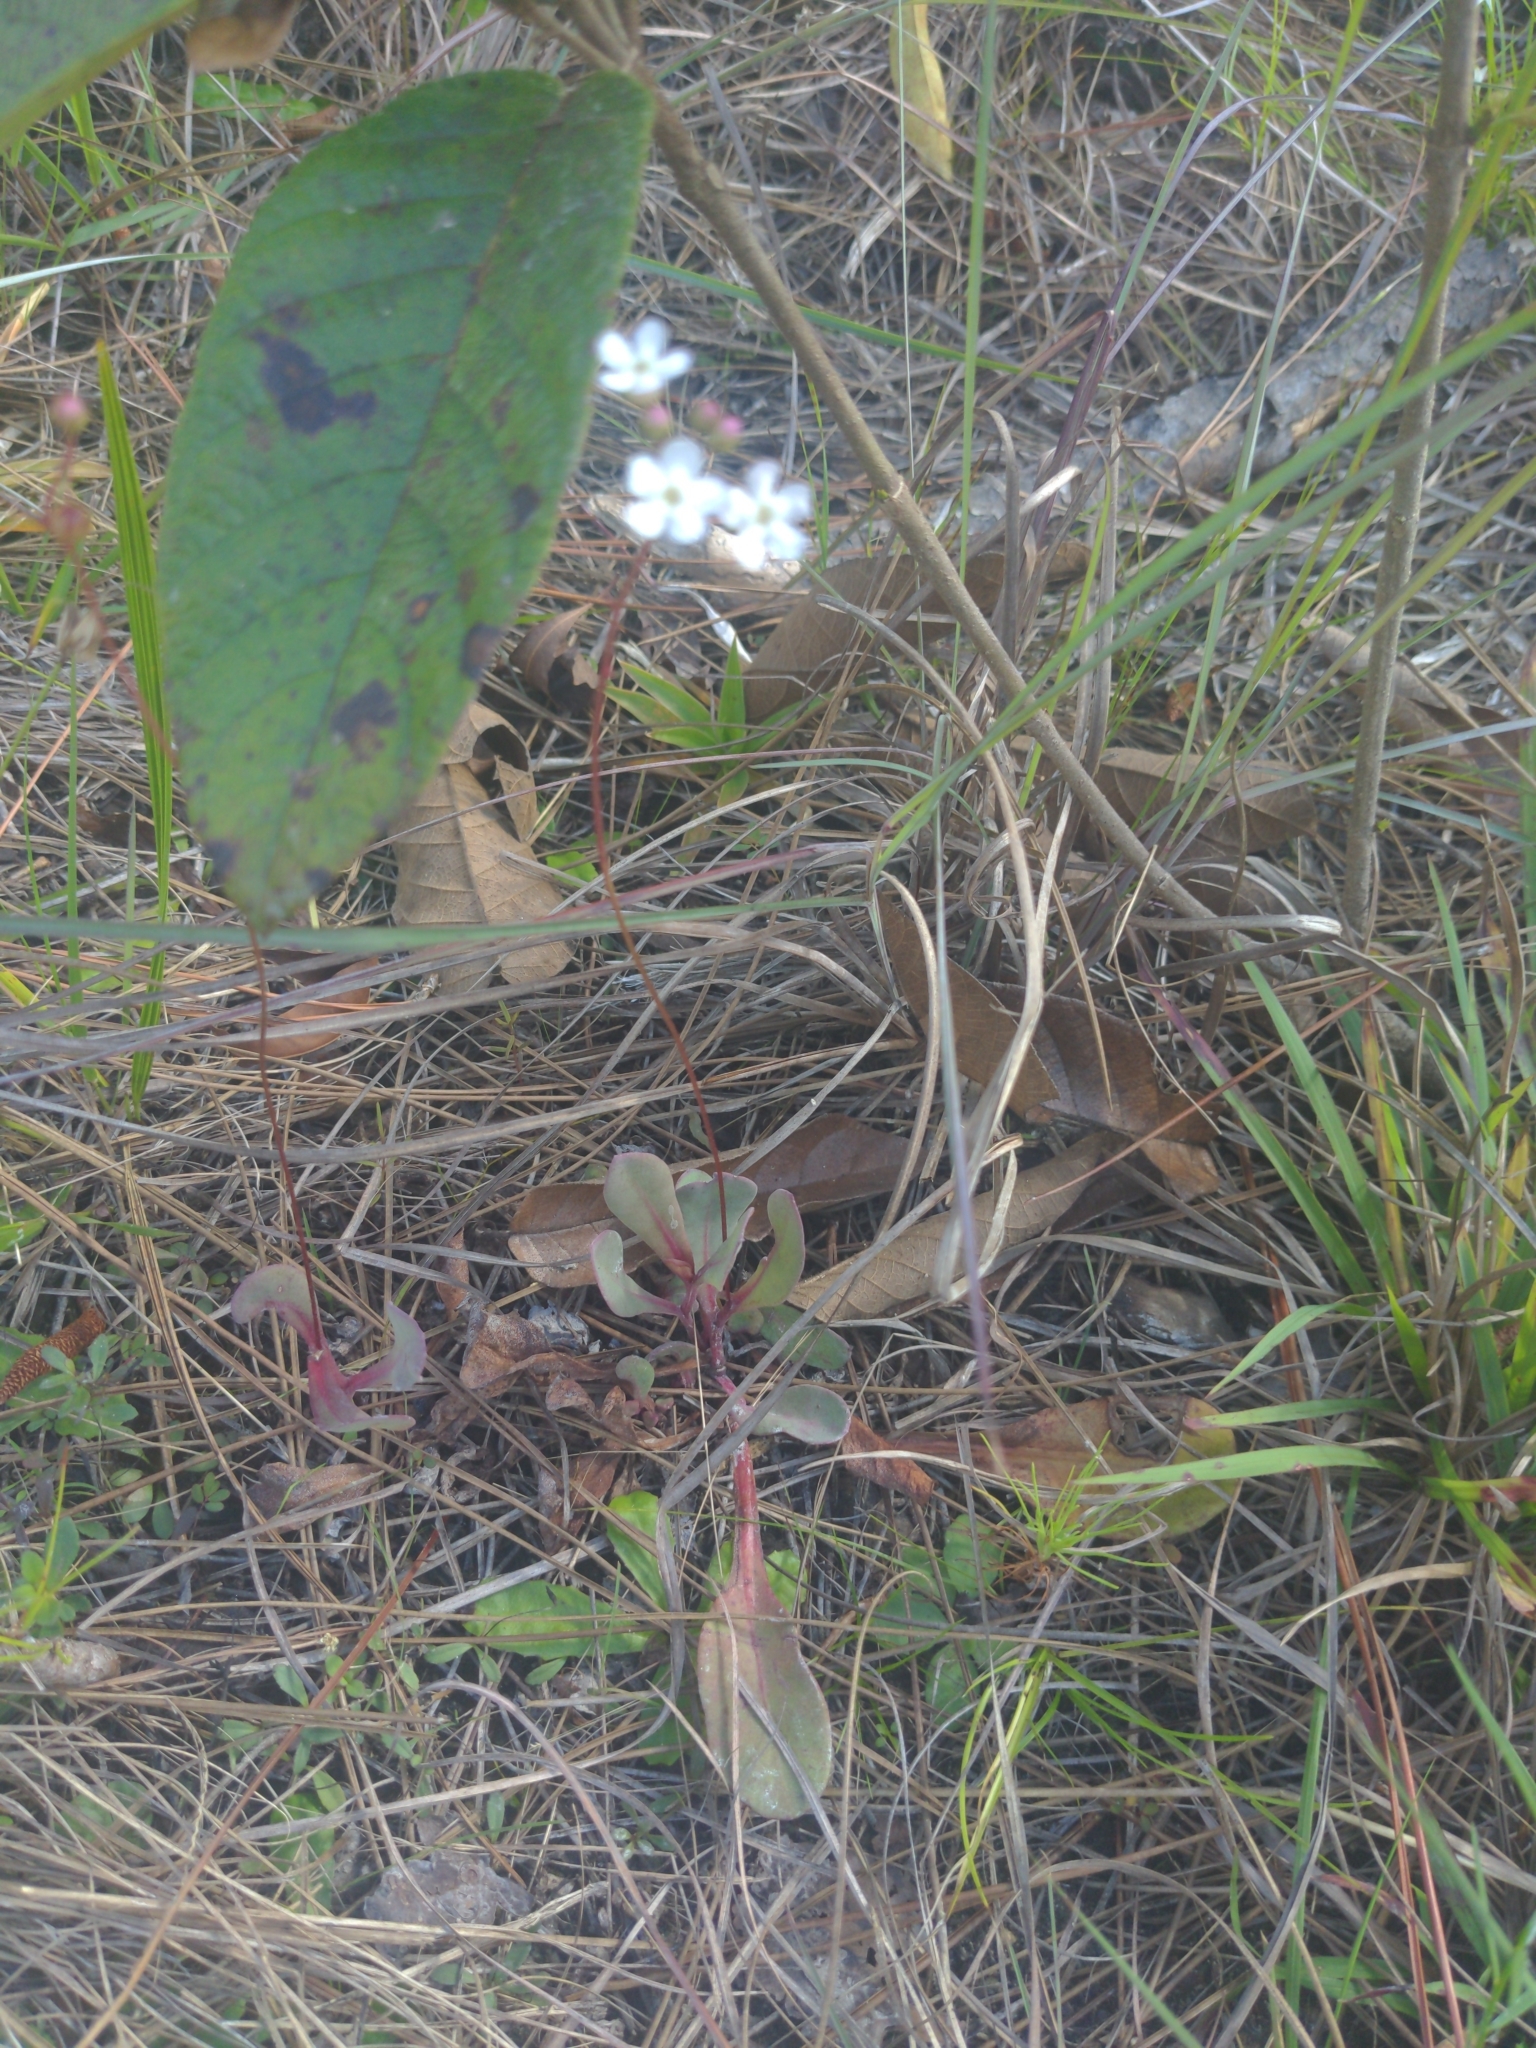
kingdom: Plantae
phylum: Tracheophyta
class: Magnoliopsida
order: Ericales
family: Primulaceae
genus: Samolus
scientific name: Samolus ebracteatus
